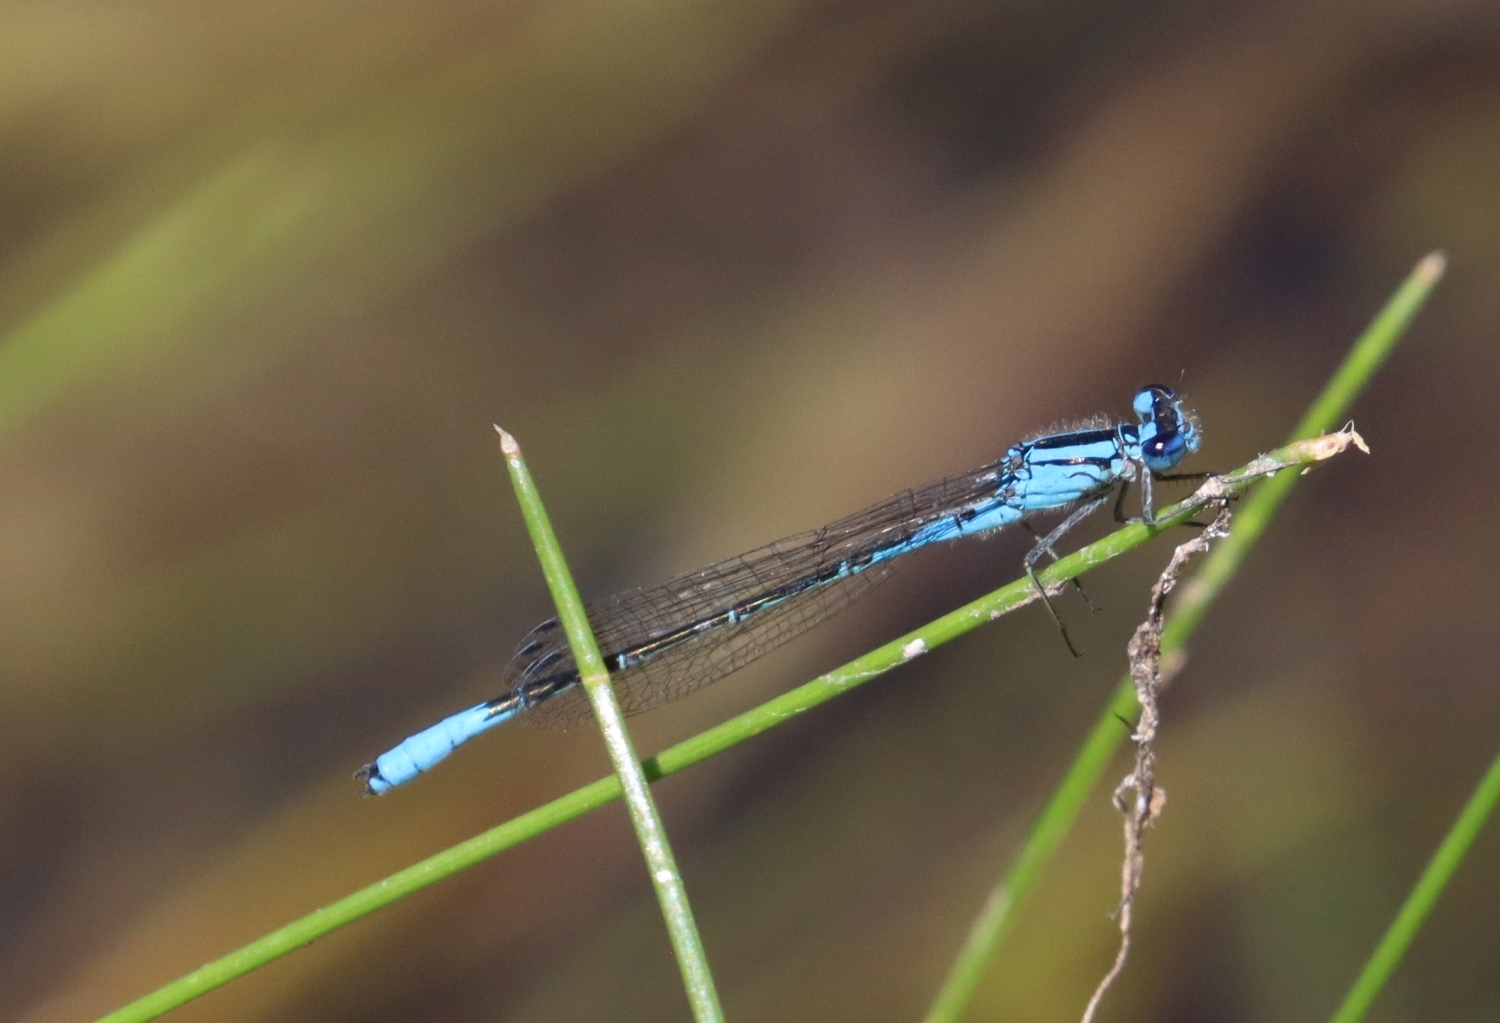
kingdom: Animalia
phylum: Arthropoda
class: Insecta
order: Odonata
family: Coenagrionidae
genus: Enallagma
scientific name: Enallagma aspersum
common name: Azure bluet
